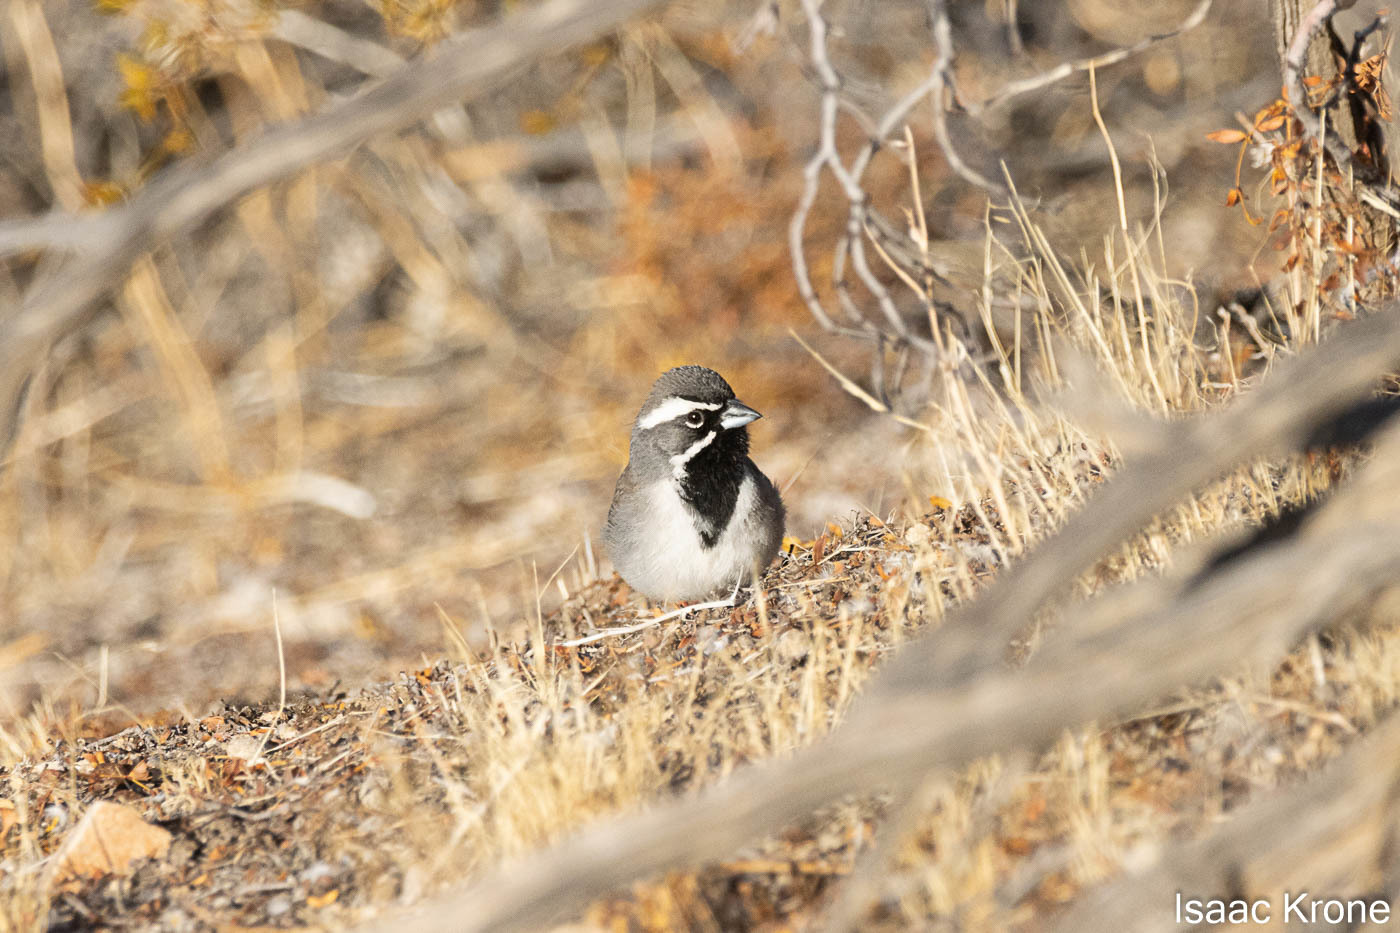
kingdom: Animalia
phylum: Chordata
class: Aves
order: Passeriformes
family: Passerellidae
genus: Amphispiza
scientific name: Amphispiza bilineata
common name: Black-throated sparrow
